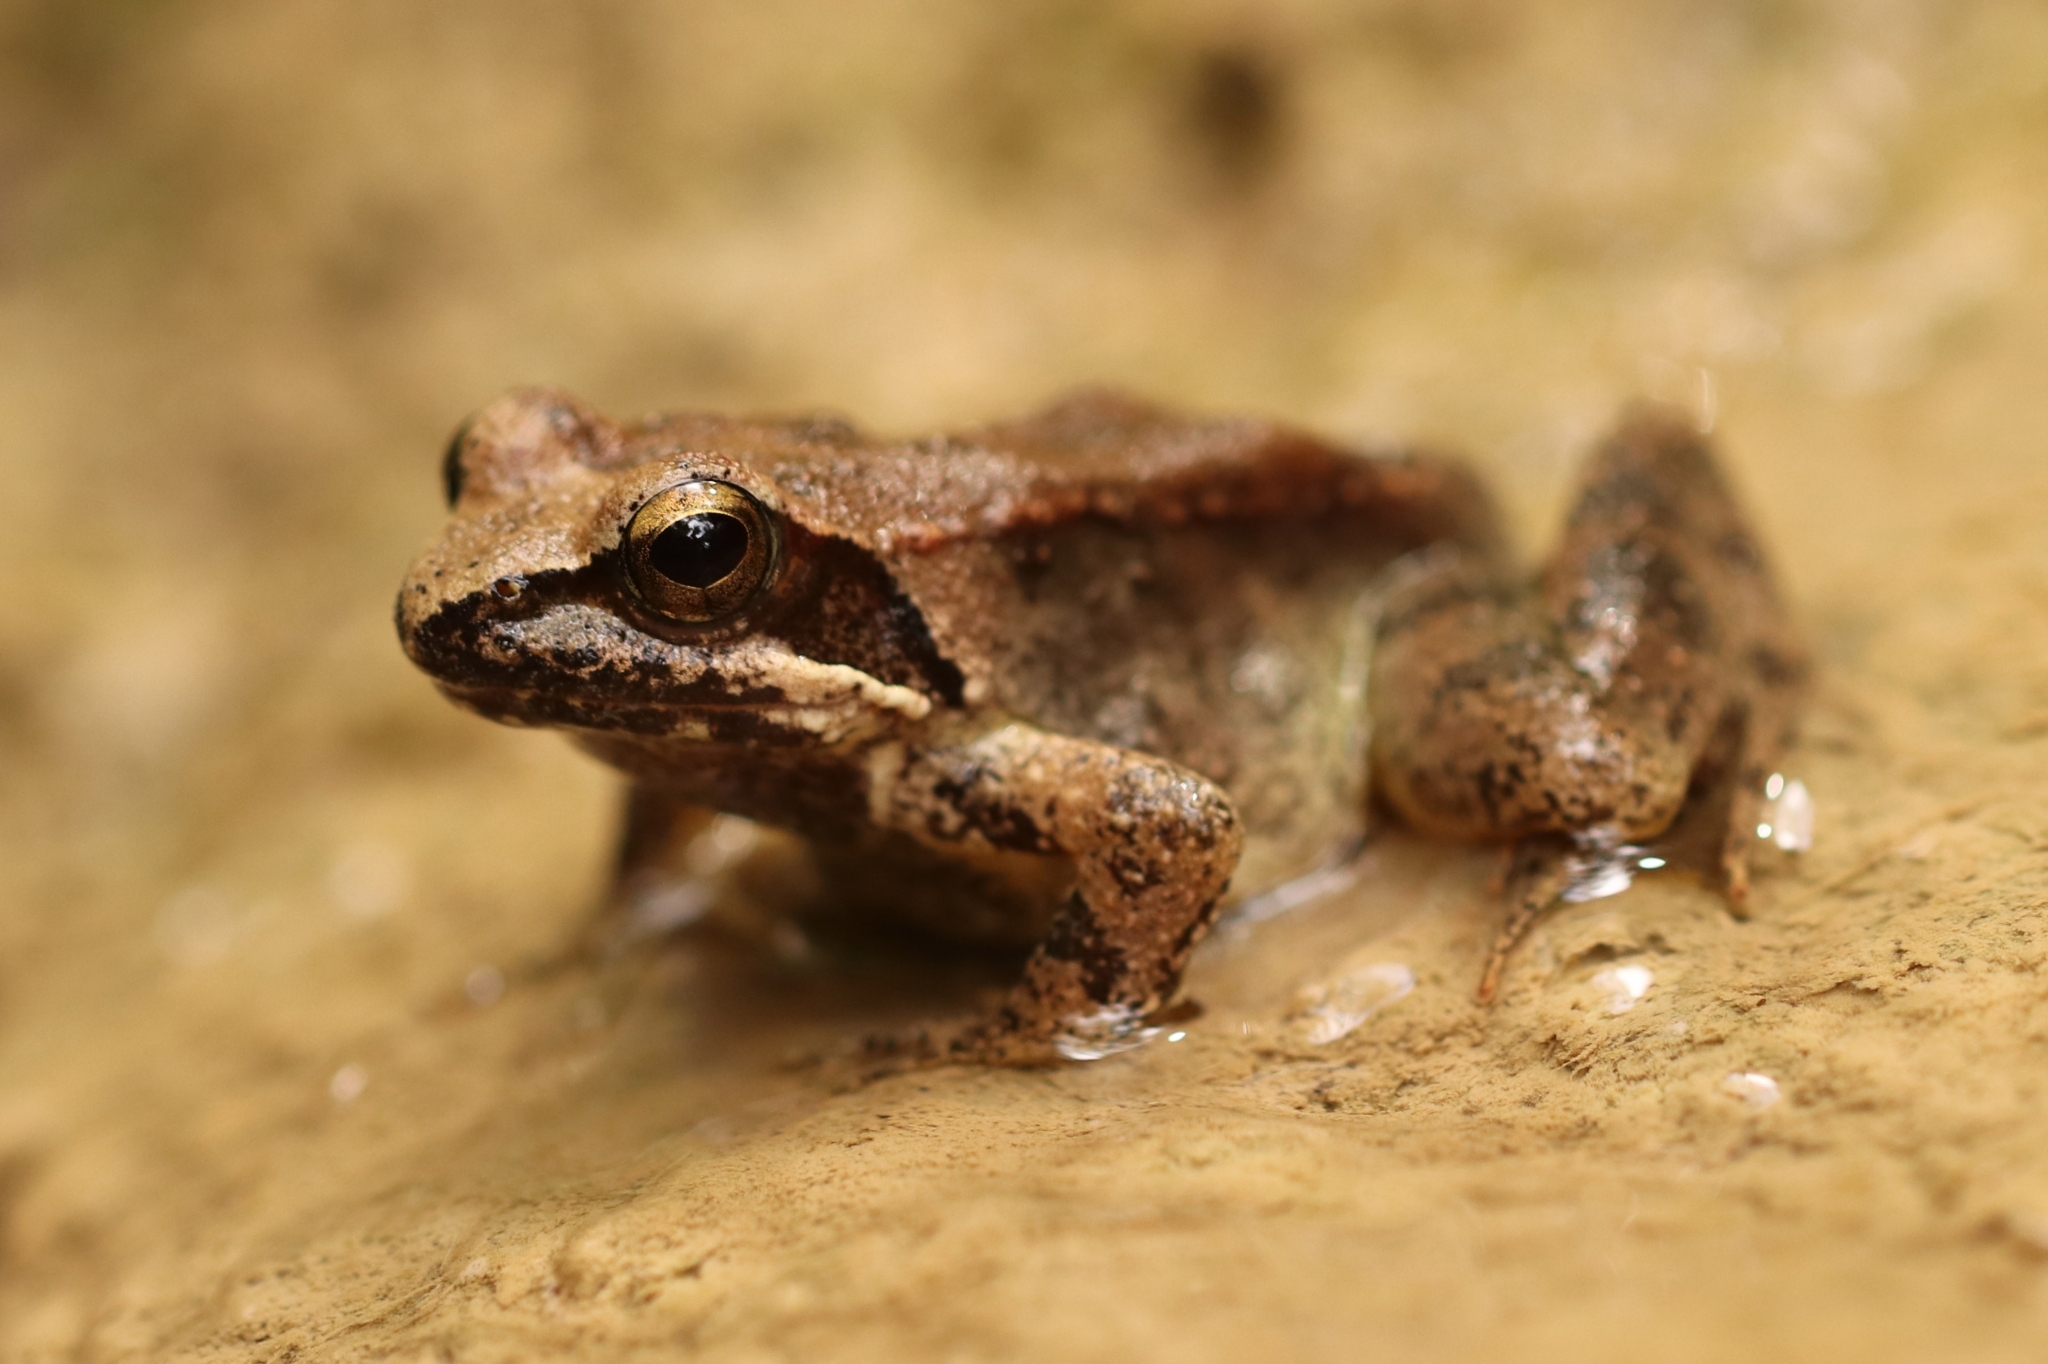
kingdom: Animalia
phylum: Chordata
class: Amphibia
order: Anura
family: Ranidae
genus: Rana
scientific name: Rana graeca
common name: Greek stream frog
